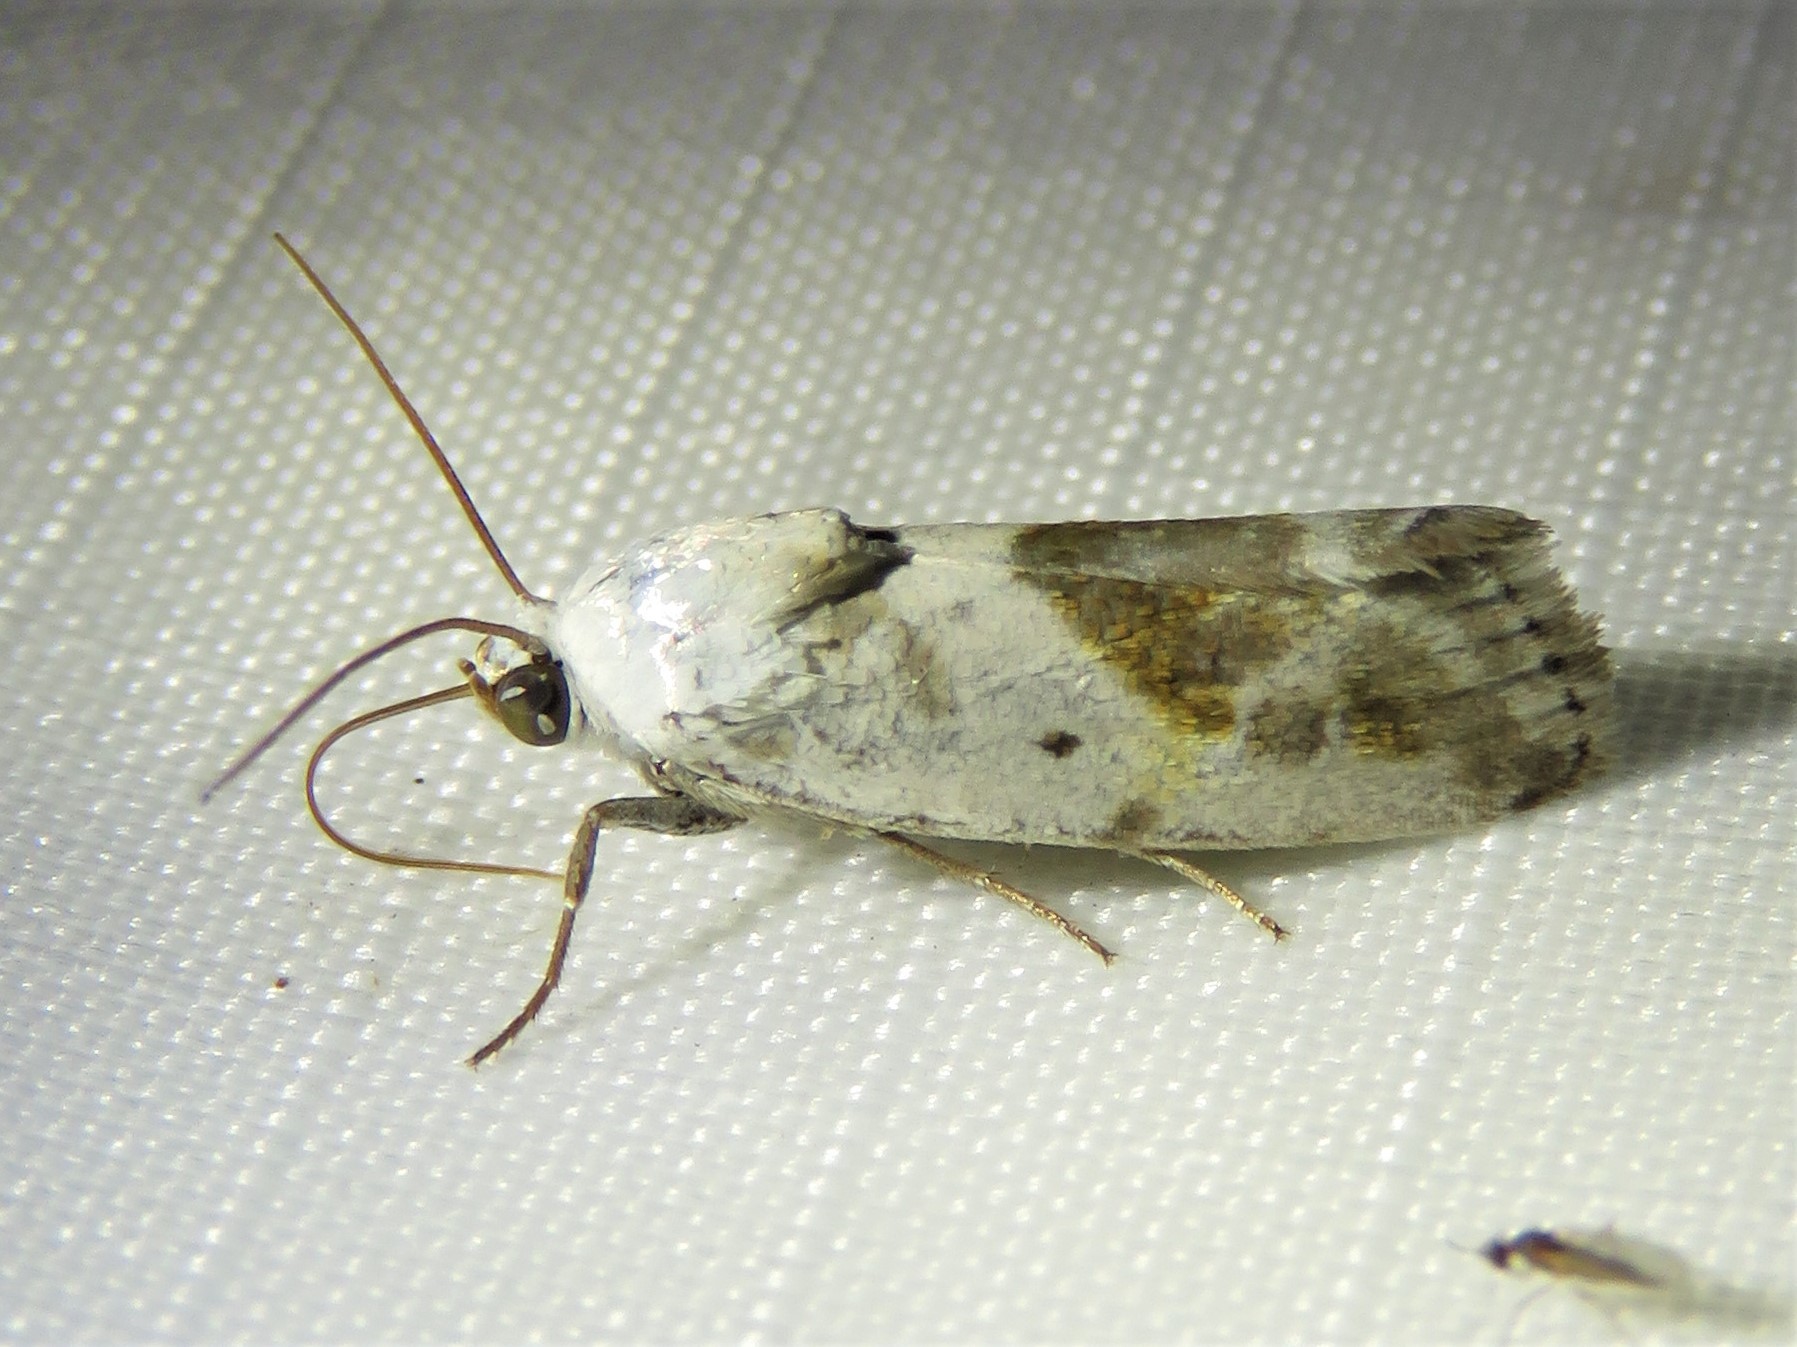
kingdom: Animalia
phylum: Arthropoda
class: Insecta
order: Lepidoptera
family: Noctuidae
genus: Acontia
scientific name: Acontia candefacta
